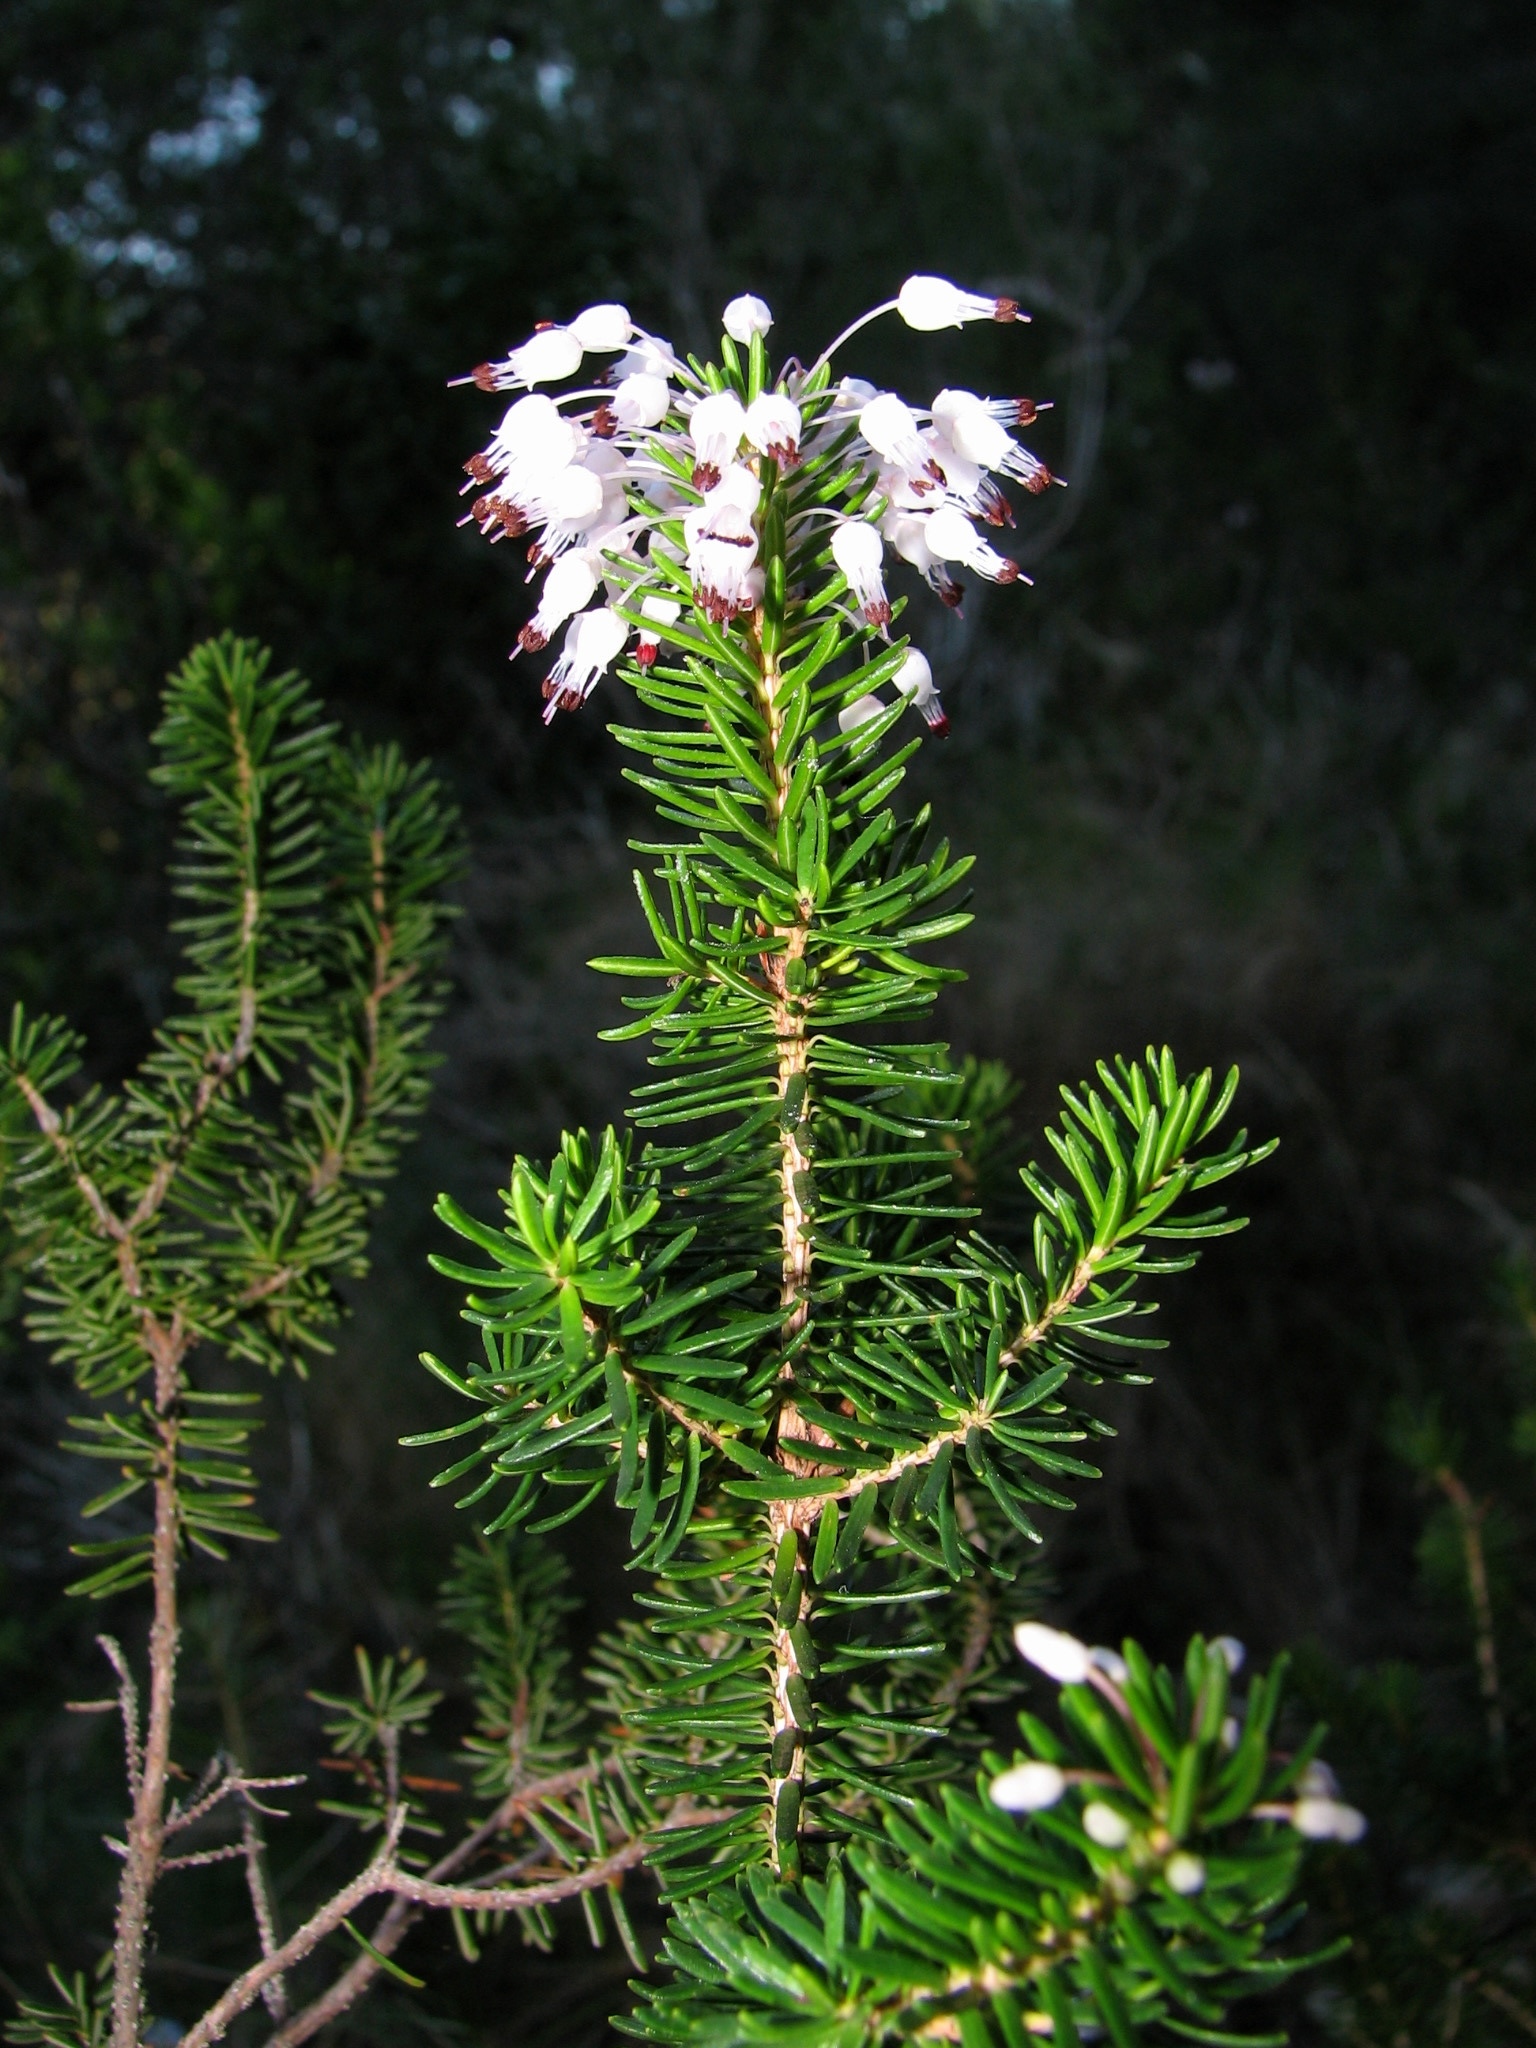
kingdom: Plantae
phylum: Tracheophyta
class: Magnoliopsida
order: Ericales
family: Ericaceae
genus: Erica
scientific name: Erica multiflora
